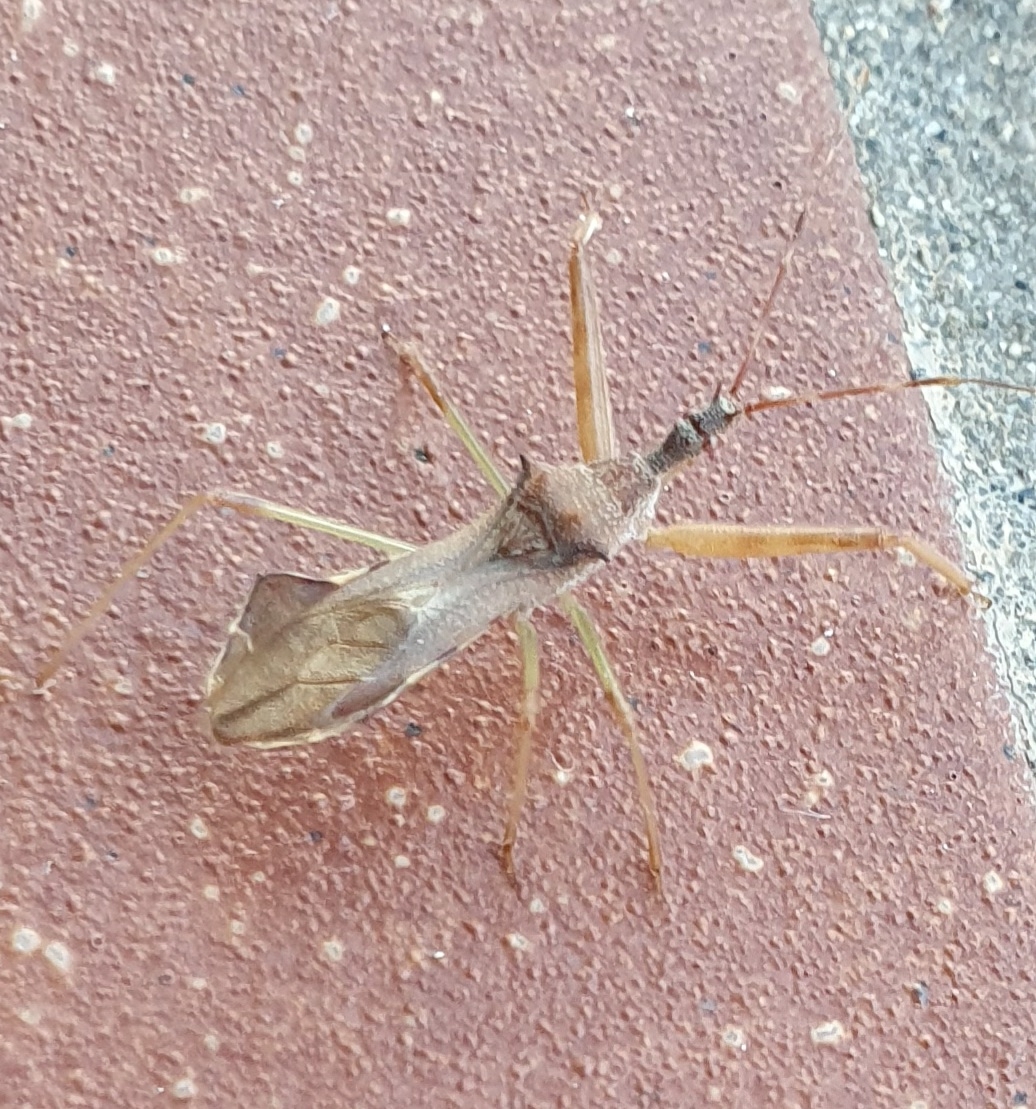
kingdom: Animalia
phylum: Arthropoda
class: Insecta
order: Hemiptera
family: Reduviidae
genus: Nagusta
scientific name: Nagusta goedelii
